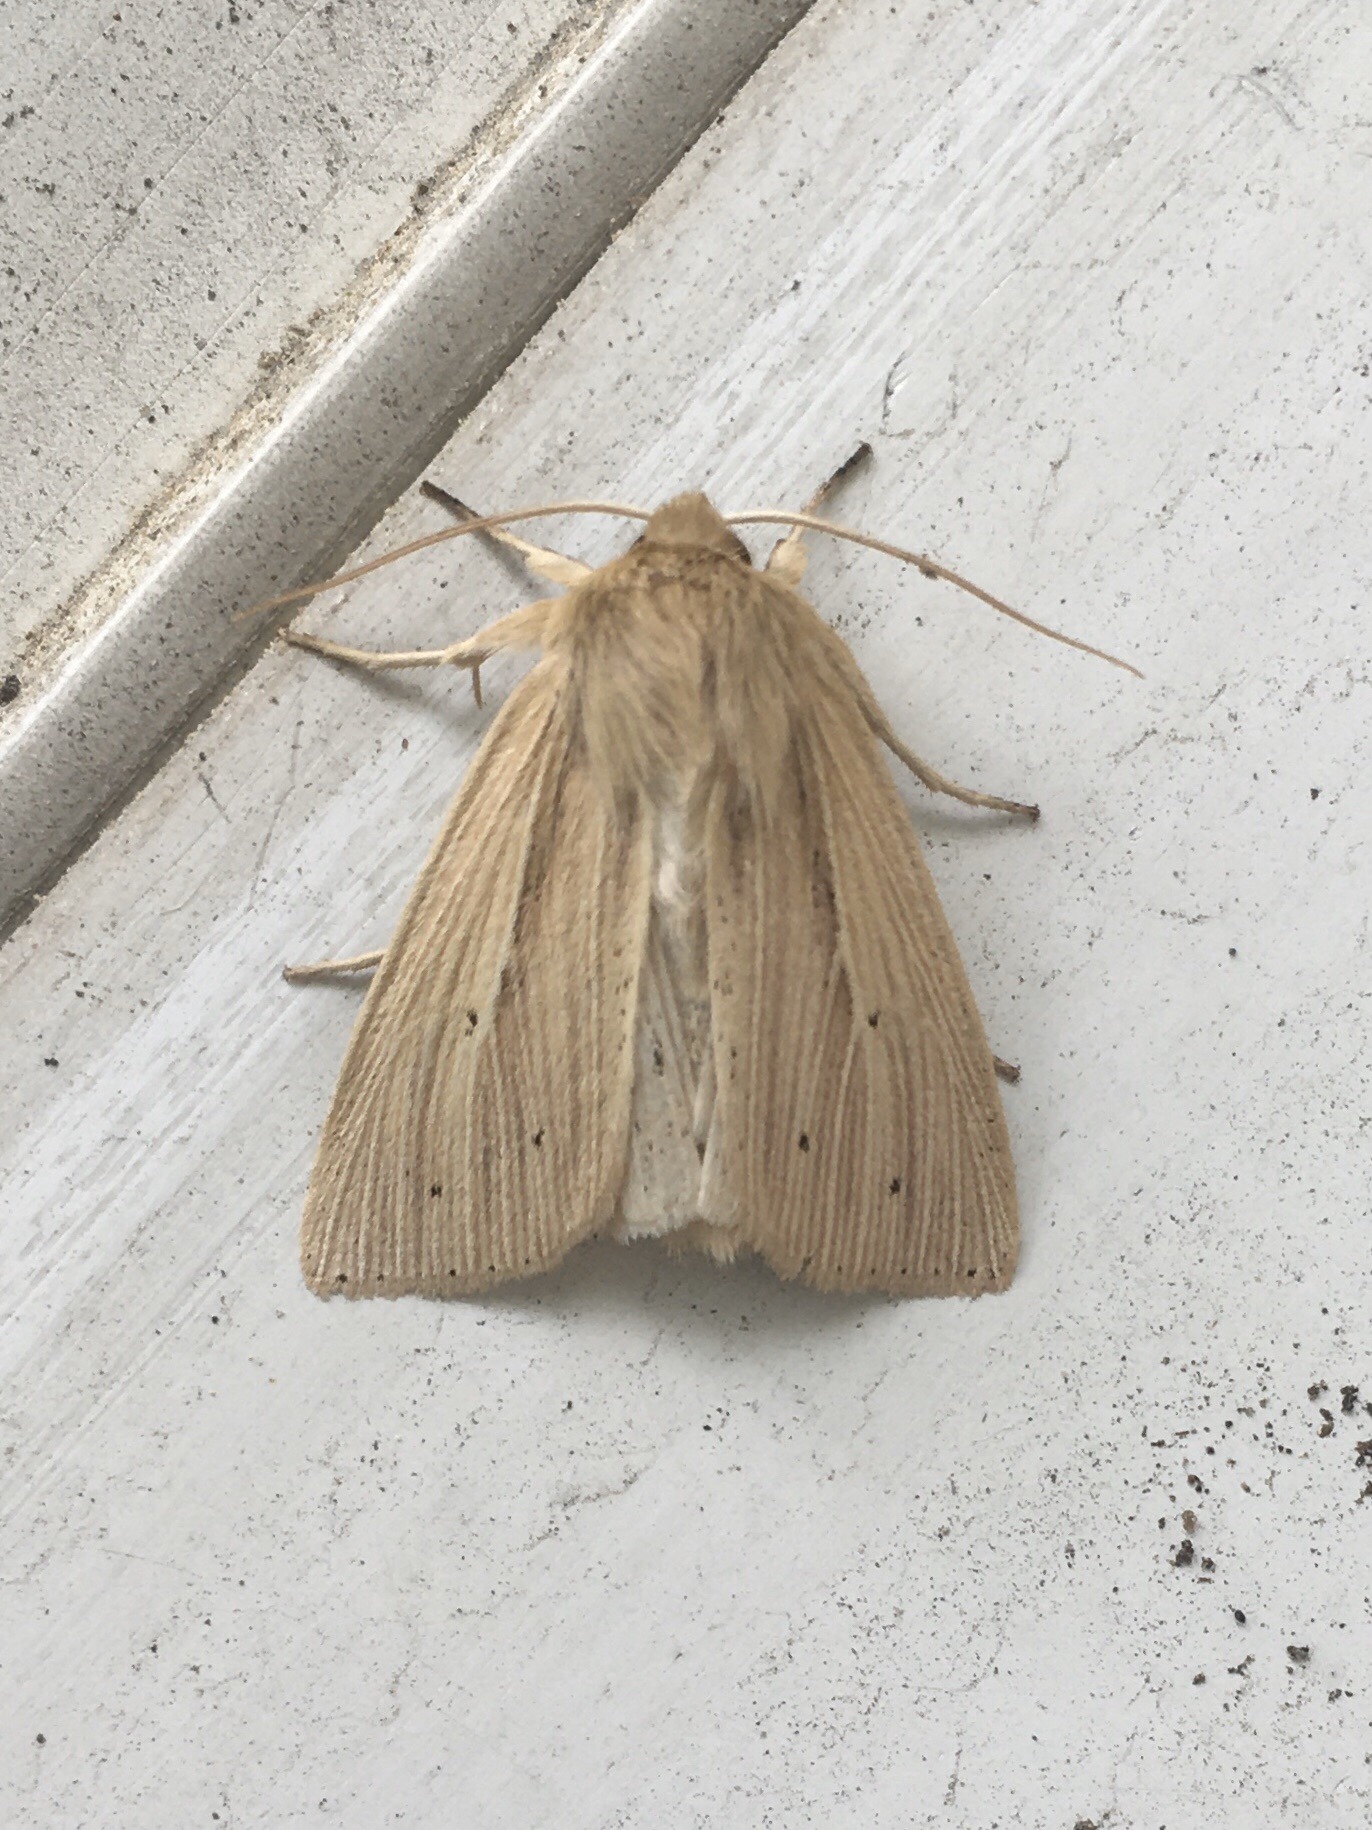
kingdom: Animalia
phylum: Arthropoda
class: Insecta
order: Lepidoptera
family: Noctuidae
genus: Mythimna
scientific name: Mythimna oxygala
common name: Lesser wainscot
